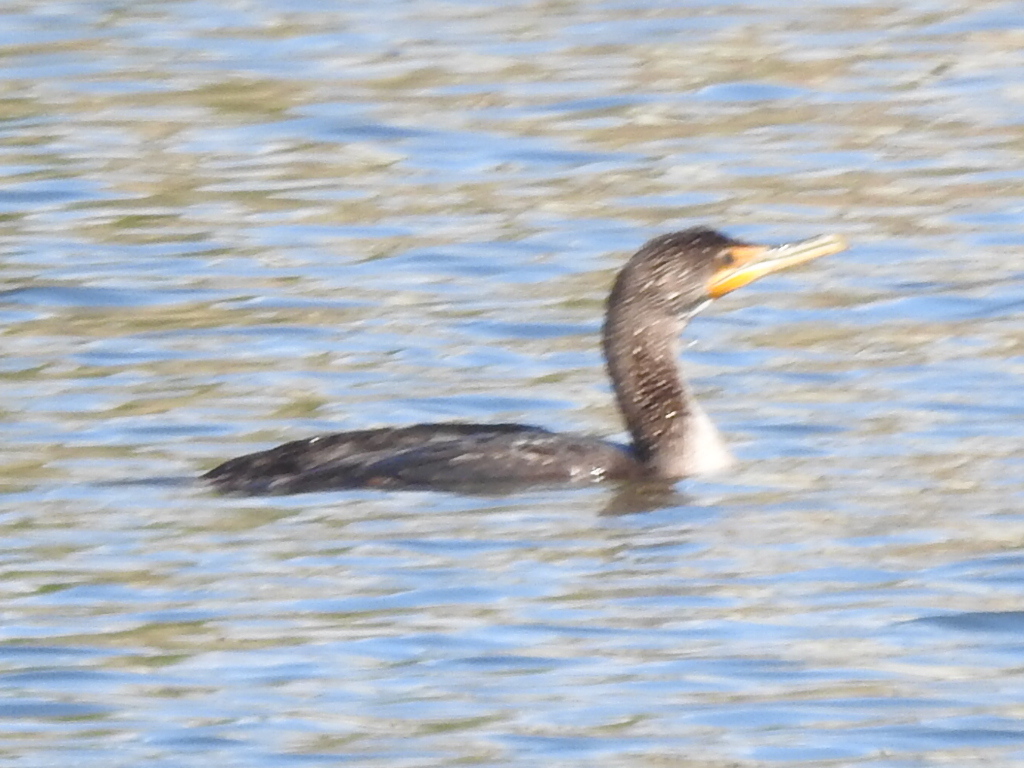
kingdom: Animalia
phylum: Chordata
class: Aves
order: Suliformes
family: Phalacrocoracidae
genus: Phalacrocorax
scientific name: Phalacrocorax auritus
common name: Double-crested cormorant
